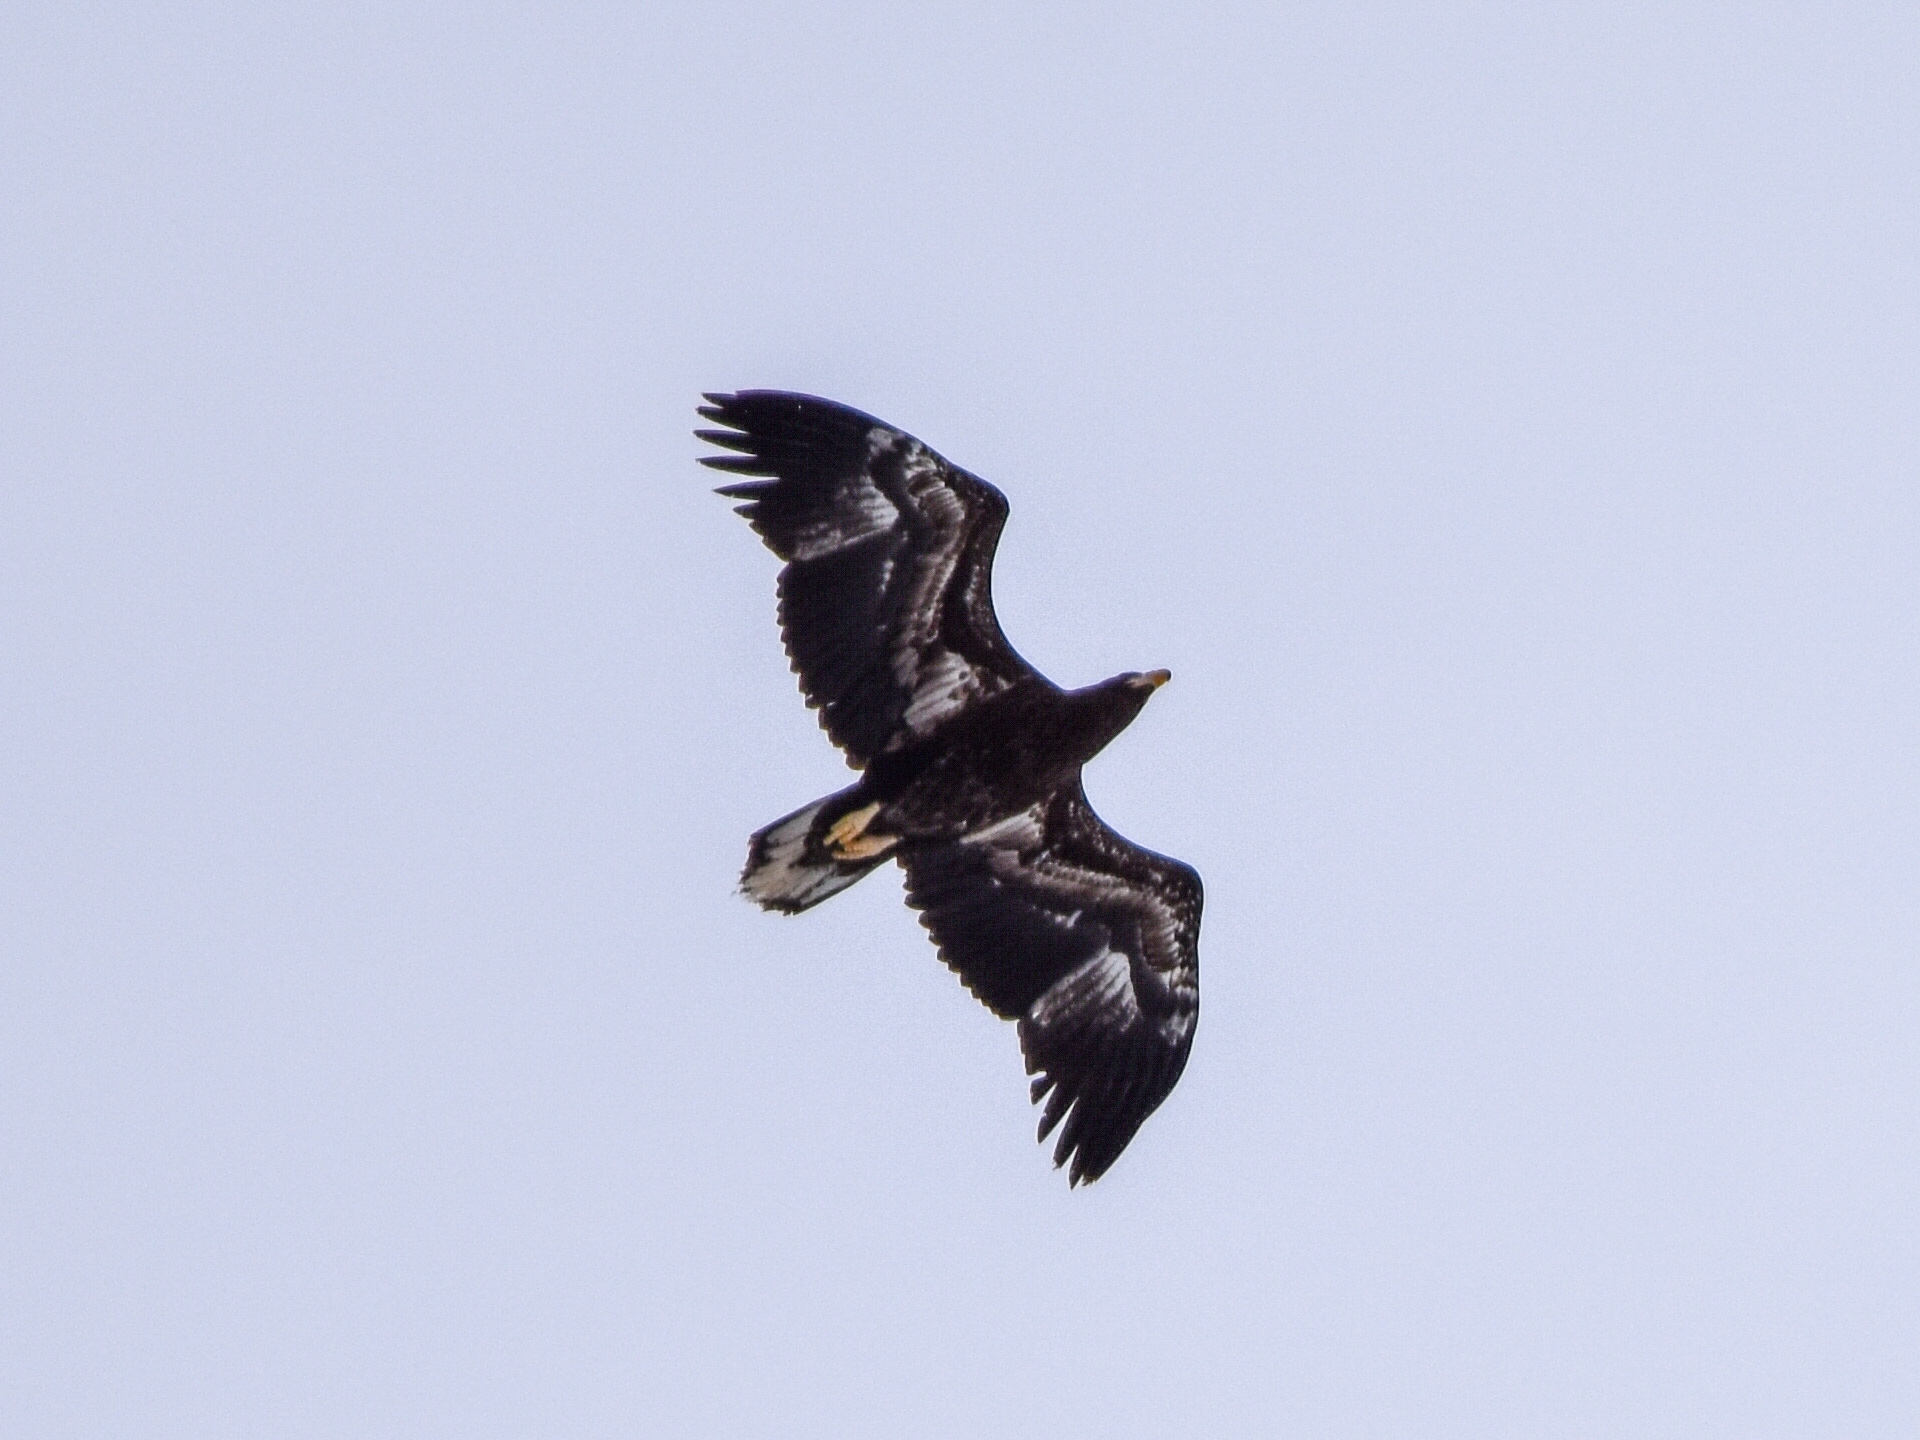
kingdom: Animalia
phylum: Chordata
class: Aves
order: Accipitriformes
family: Accipitridae
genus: Haliaeetus
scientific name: Haliaeetus pelagicus
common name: Steller's sea eagle
